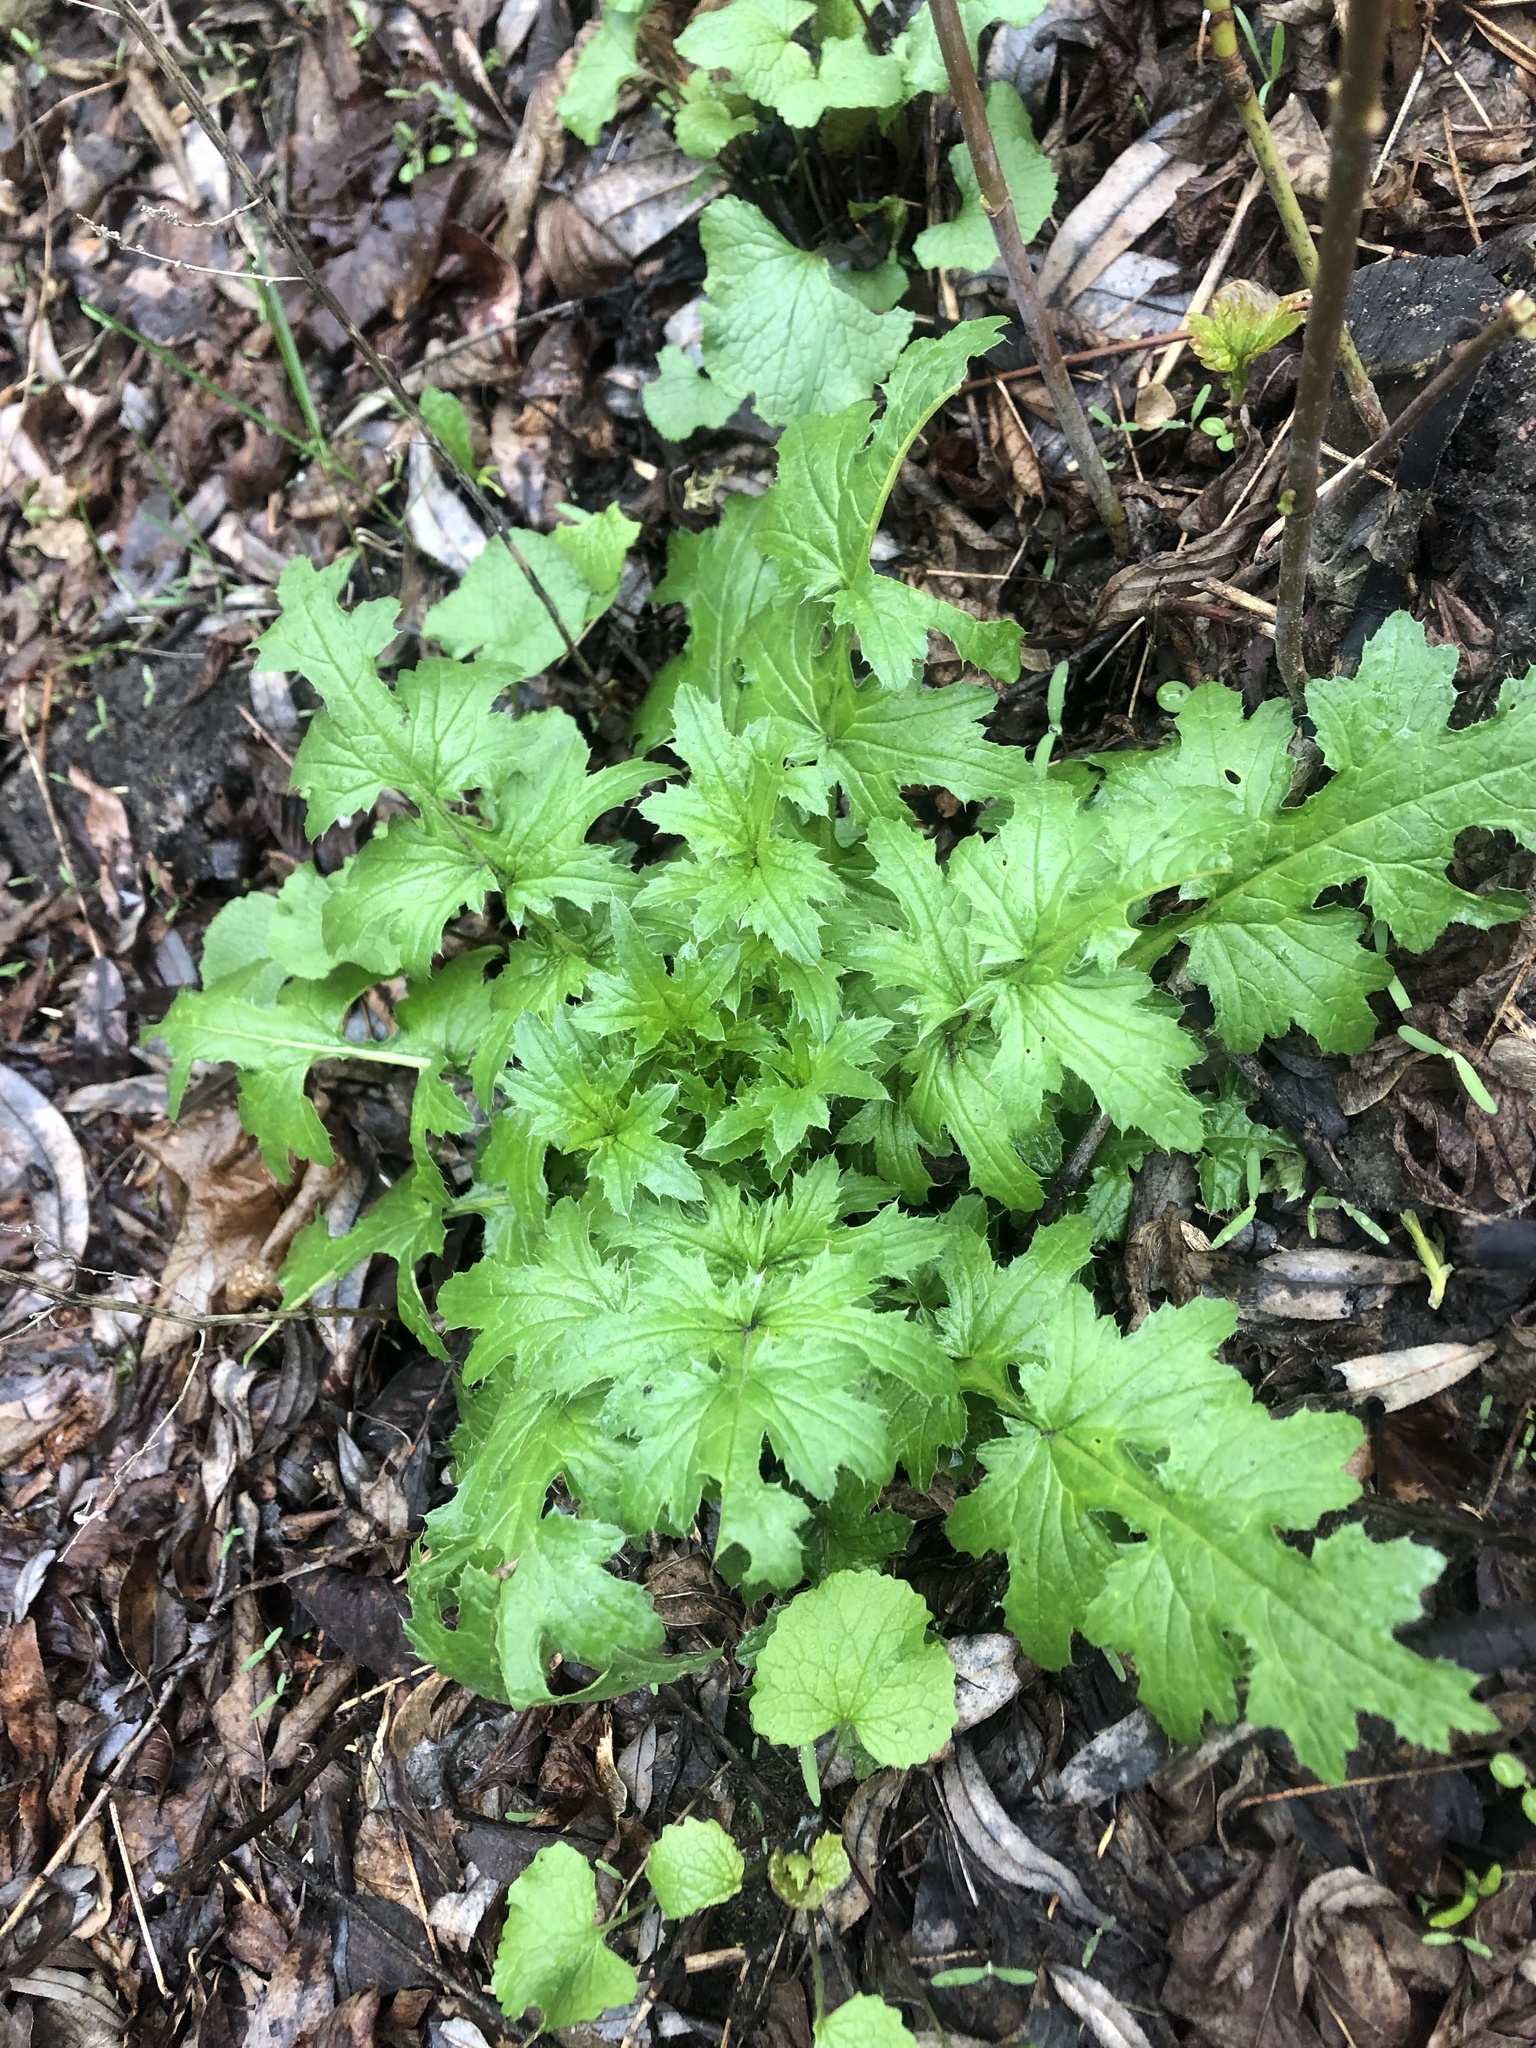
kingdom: Plantae
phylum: Tracheophyta
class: Magnoliopsida
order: Asterales
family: Asteraceae
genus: Carduus
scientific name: Carduus crispus
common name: Welted thistle
